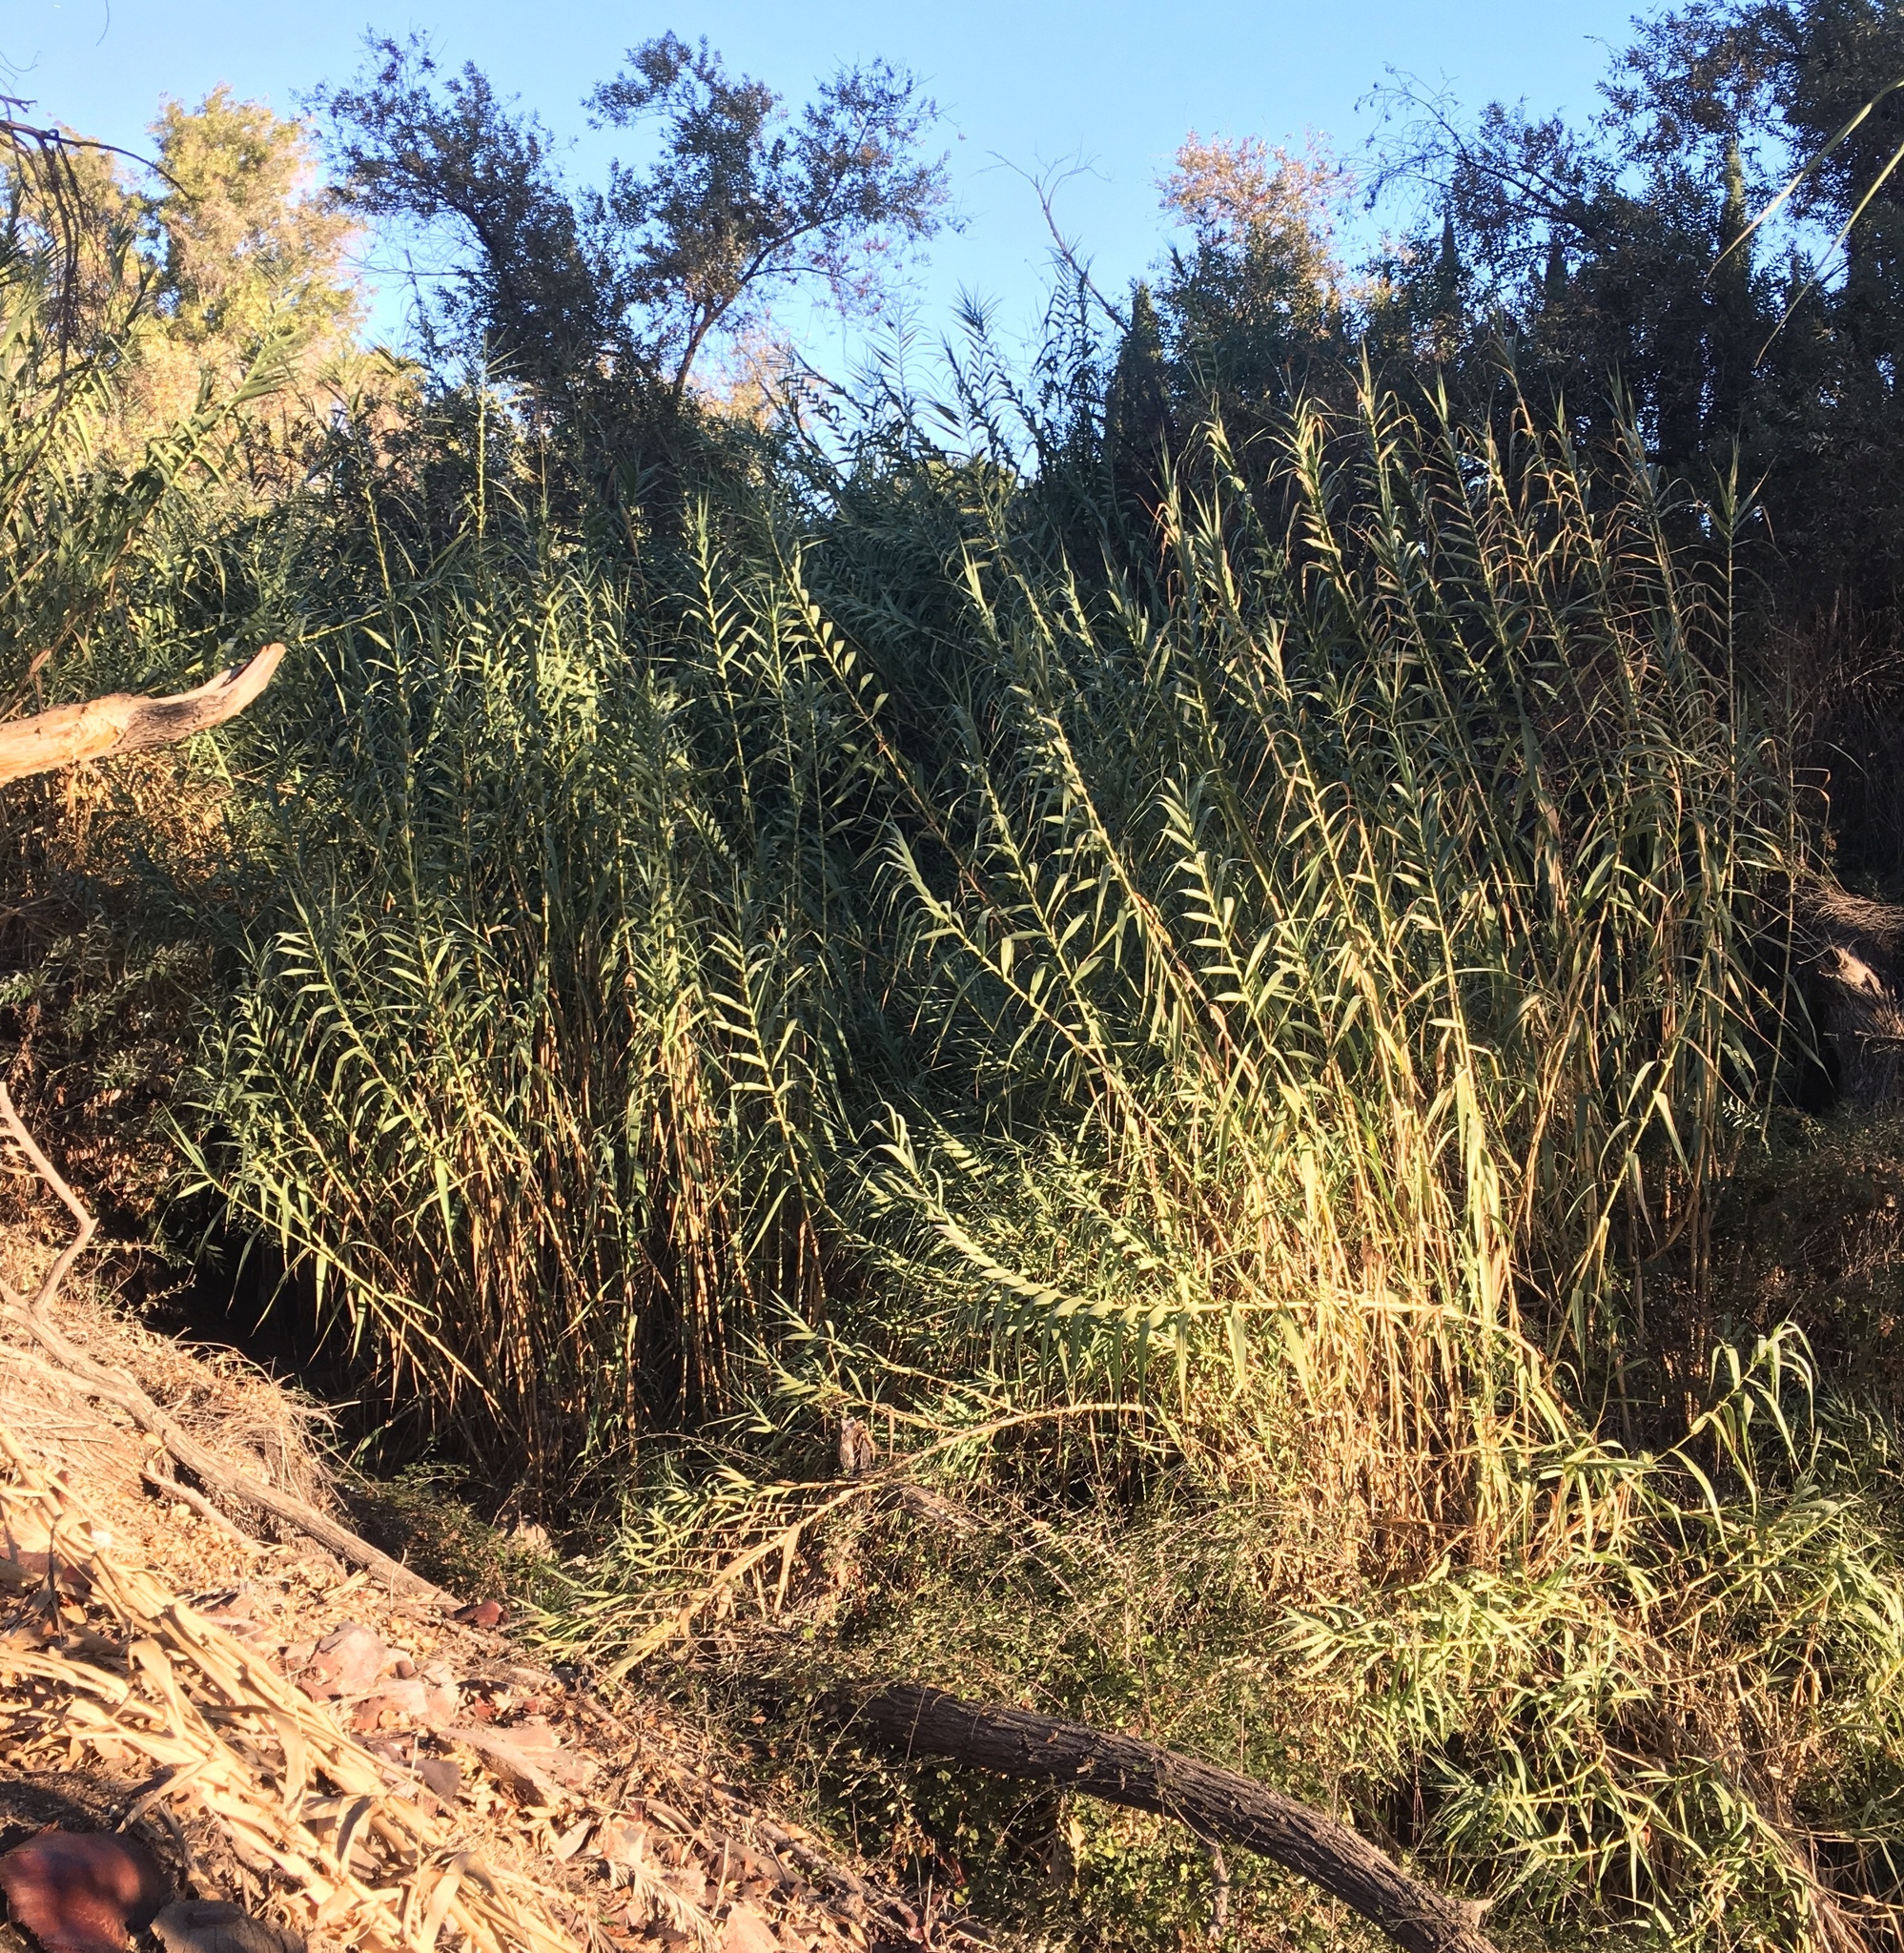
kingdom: Plantae
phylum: Tracheophyta
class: Liliopsida
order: Poales
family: Poaceae
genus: Arundo
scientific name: Arundo donax
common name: Giant reed
